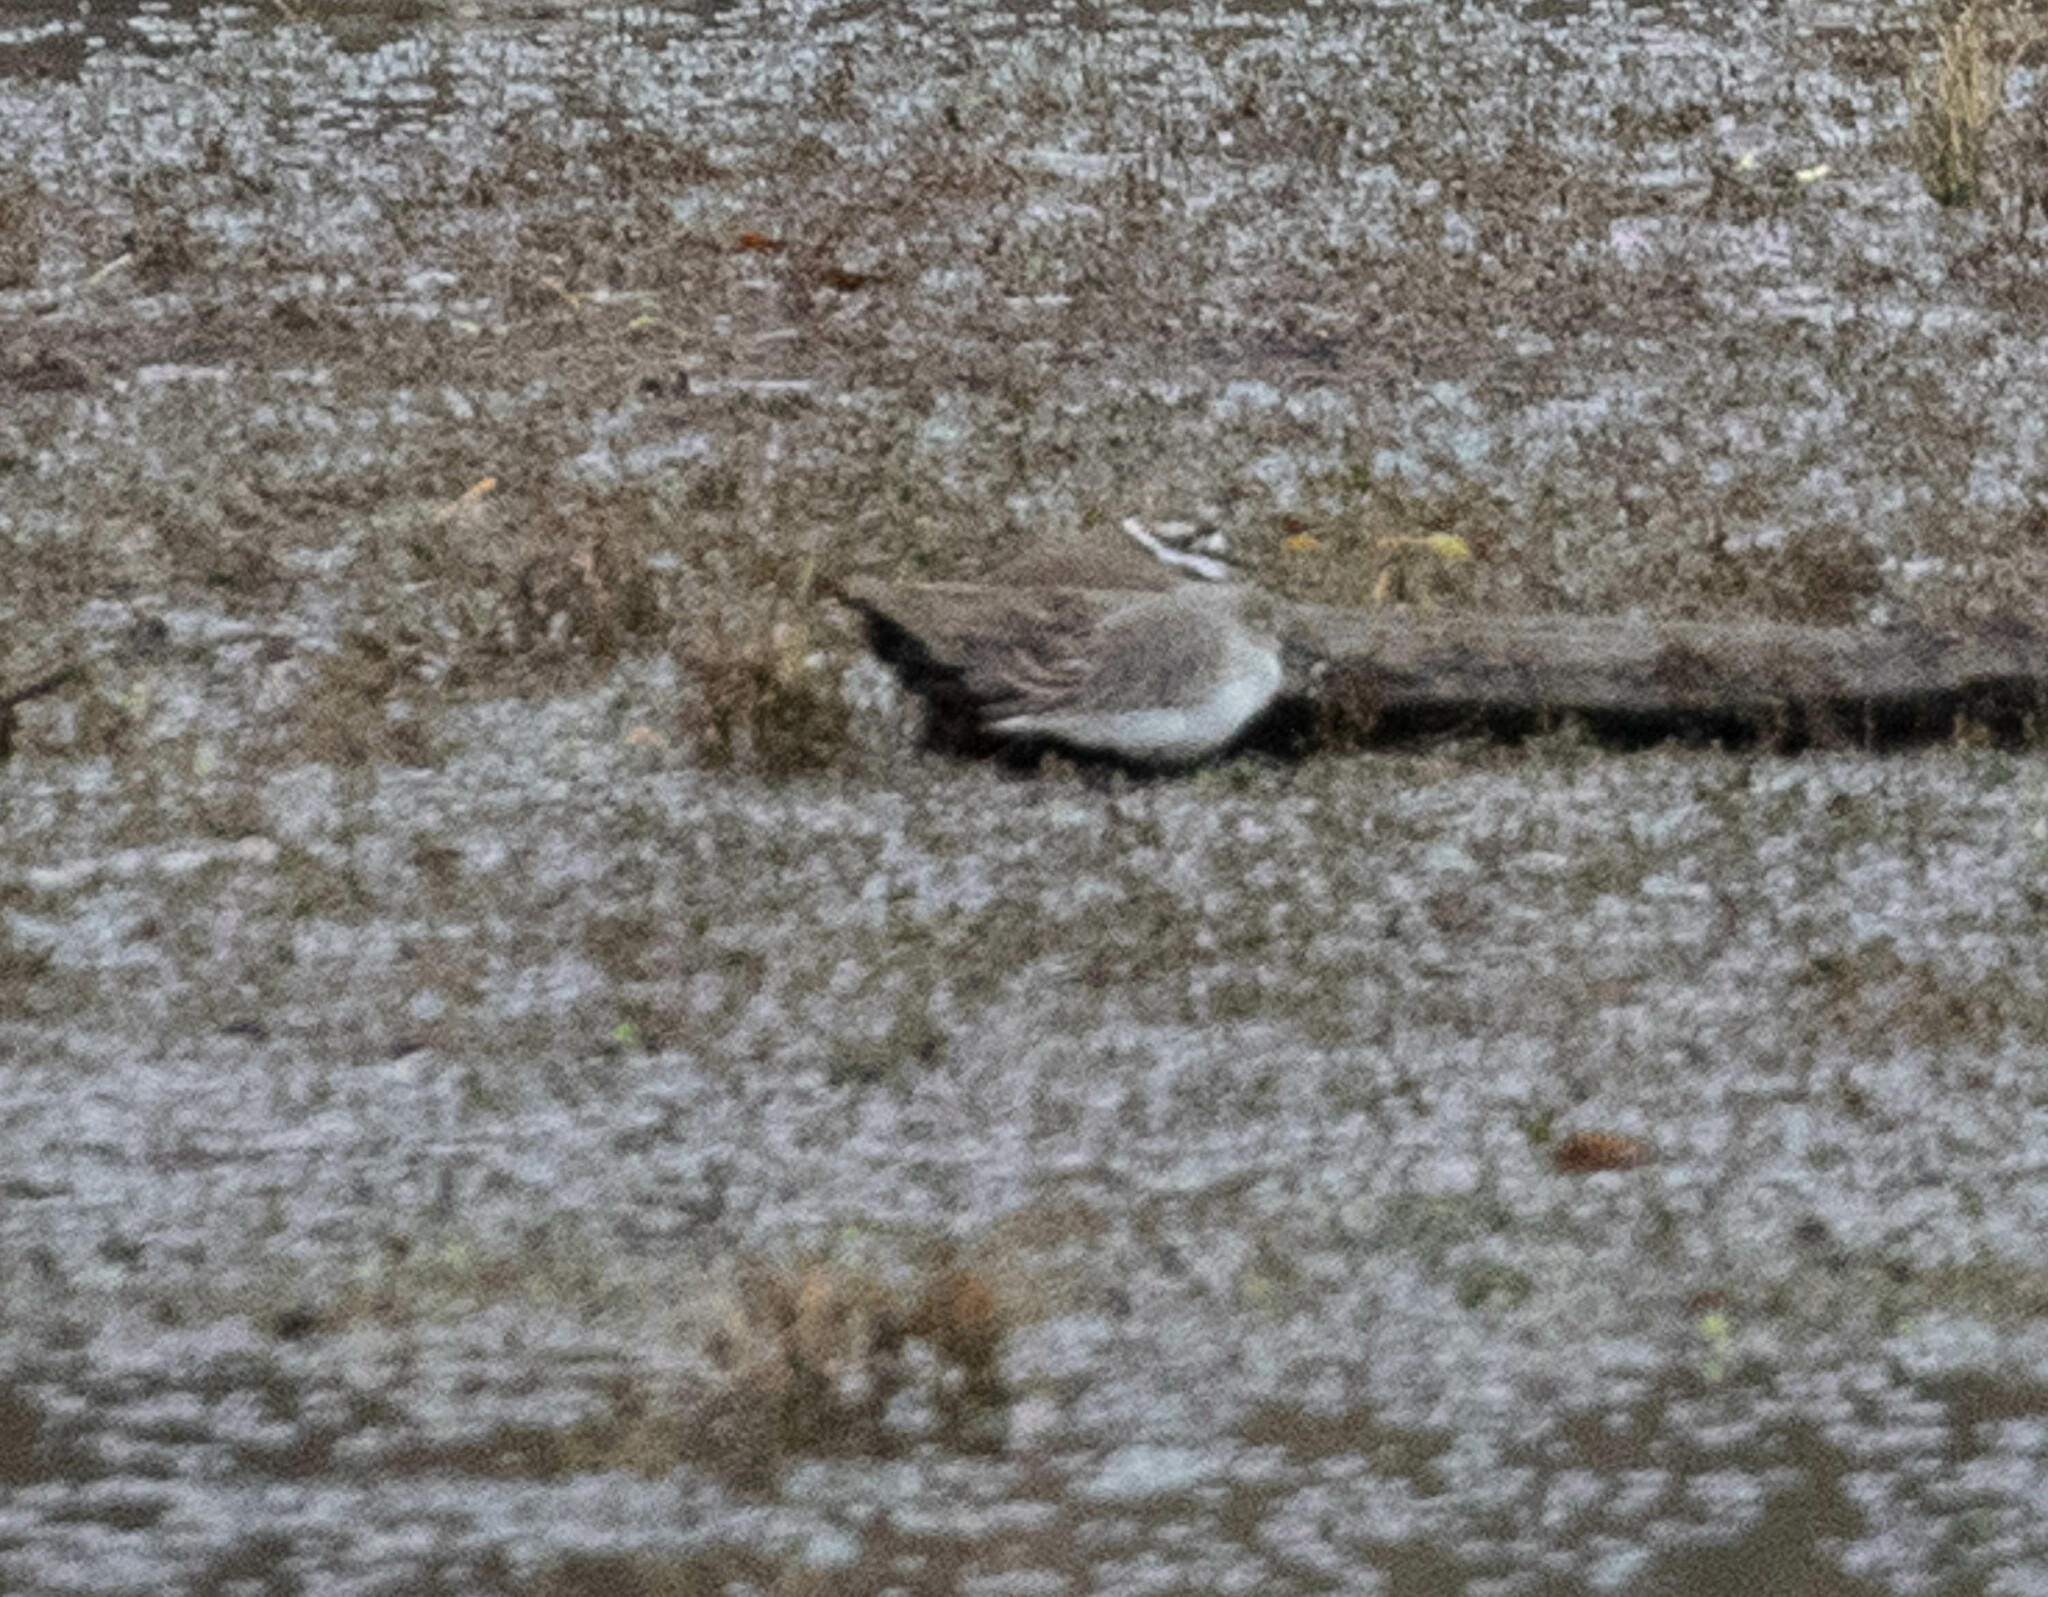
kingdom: Animalia
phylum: Chordata
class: Aves
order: Charadriiformes
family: Scolopacidae
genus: Calidris
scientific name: Calidris alpina
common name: Dunlin
